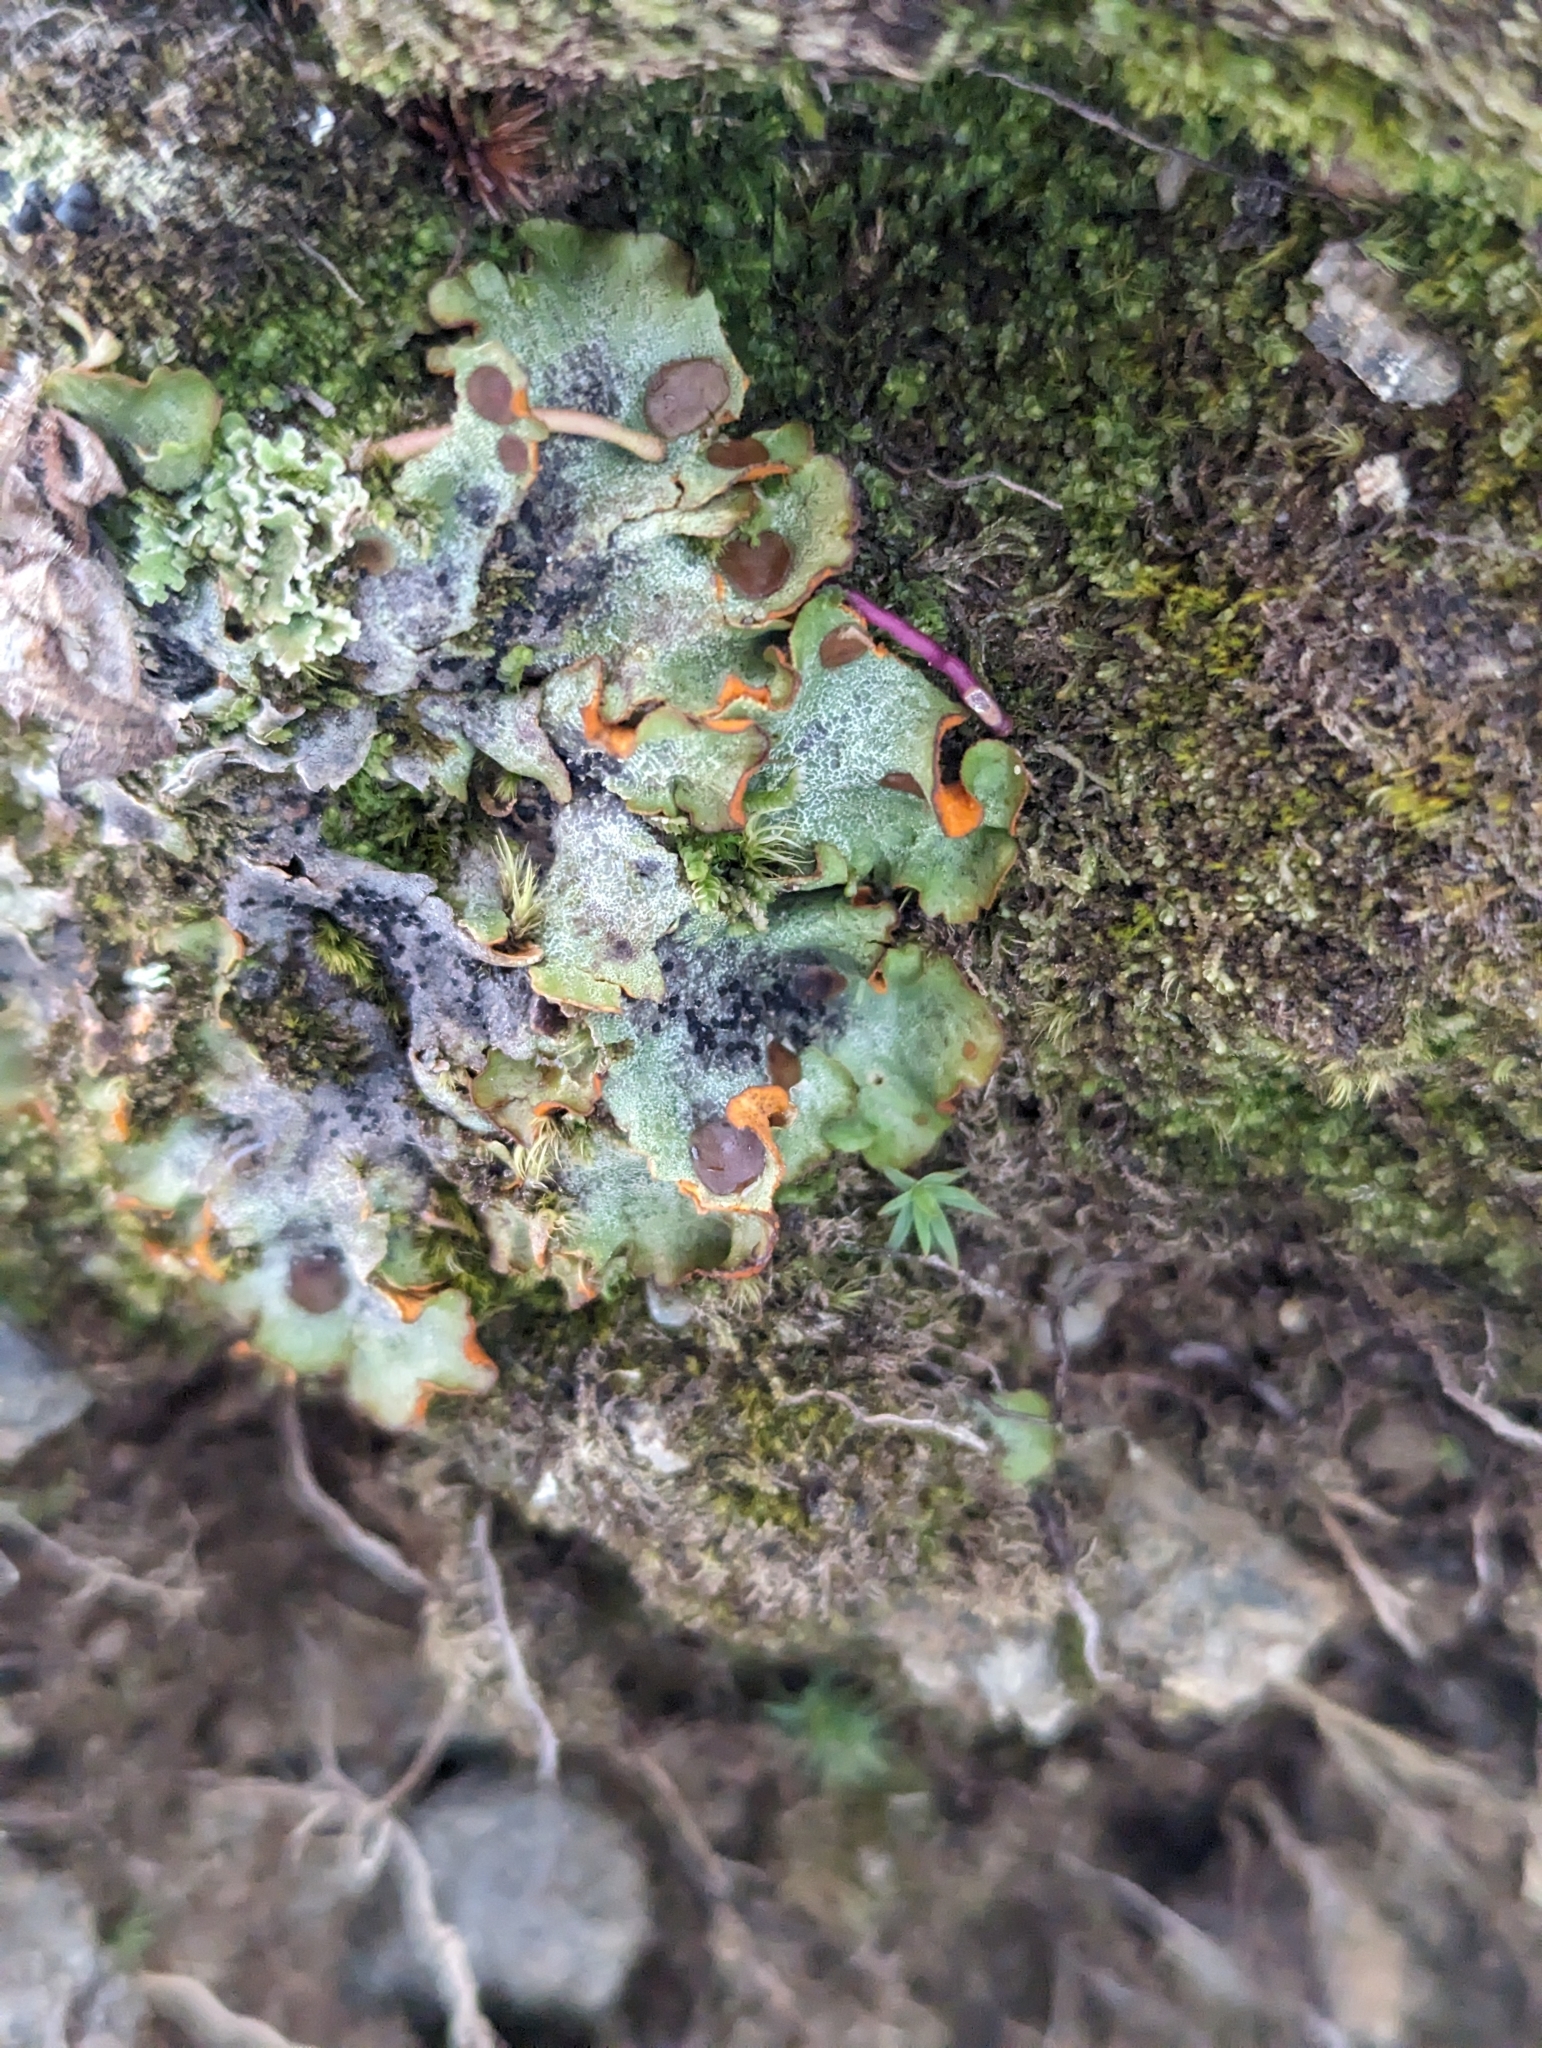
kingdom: Fungi
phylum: Ascomycota
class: Lecanoromycetes
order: Peltigerales
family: Peltigeraceae
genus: Solorina
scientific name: Solorina crocea
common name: Mountain saffron
